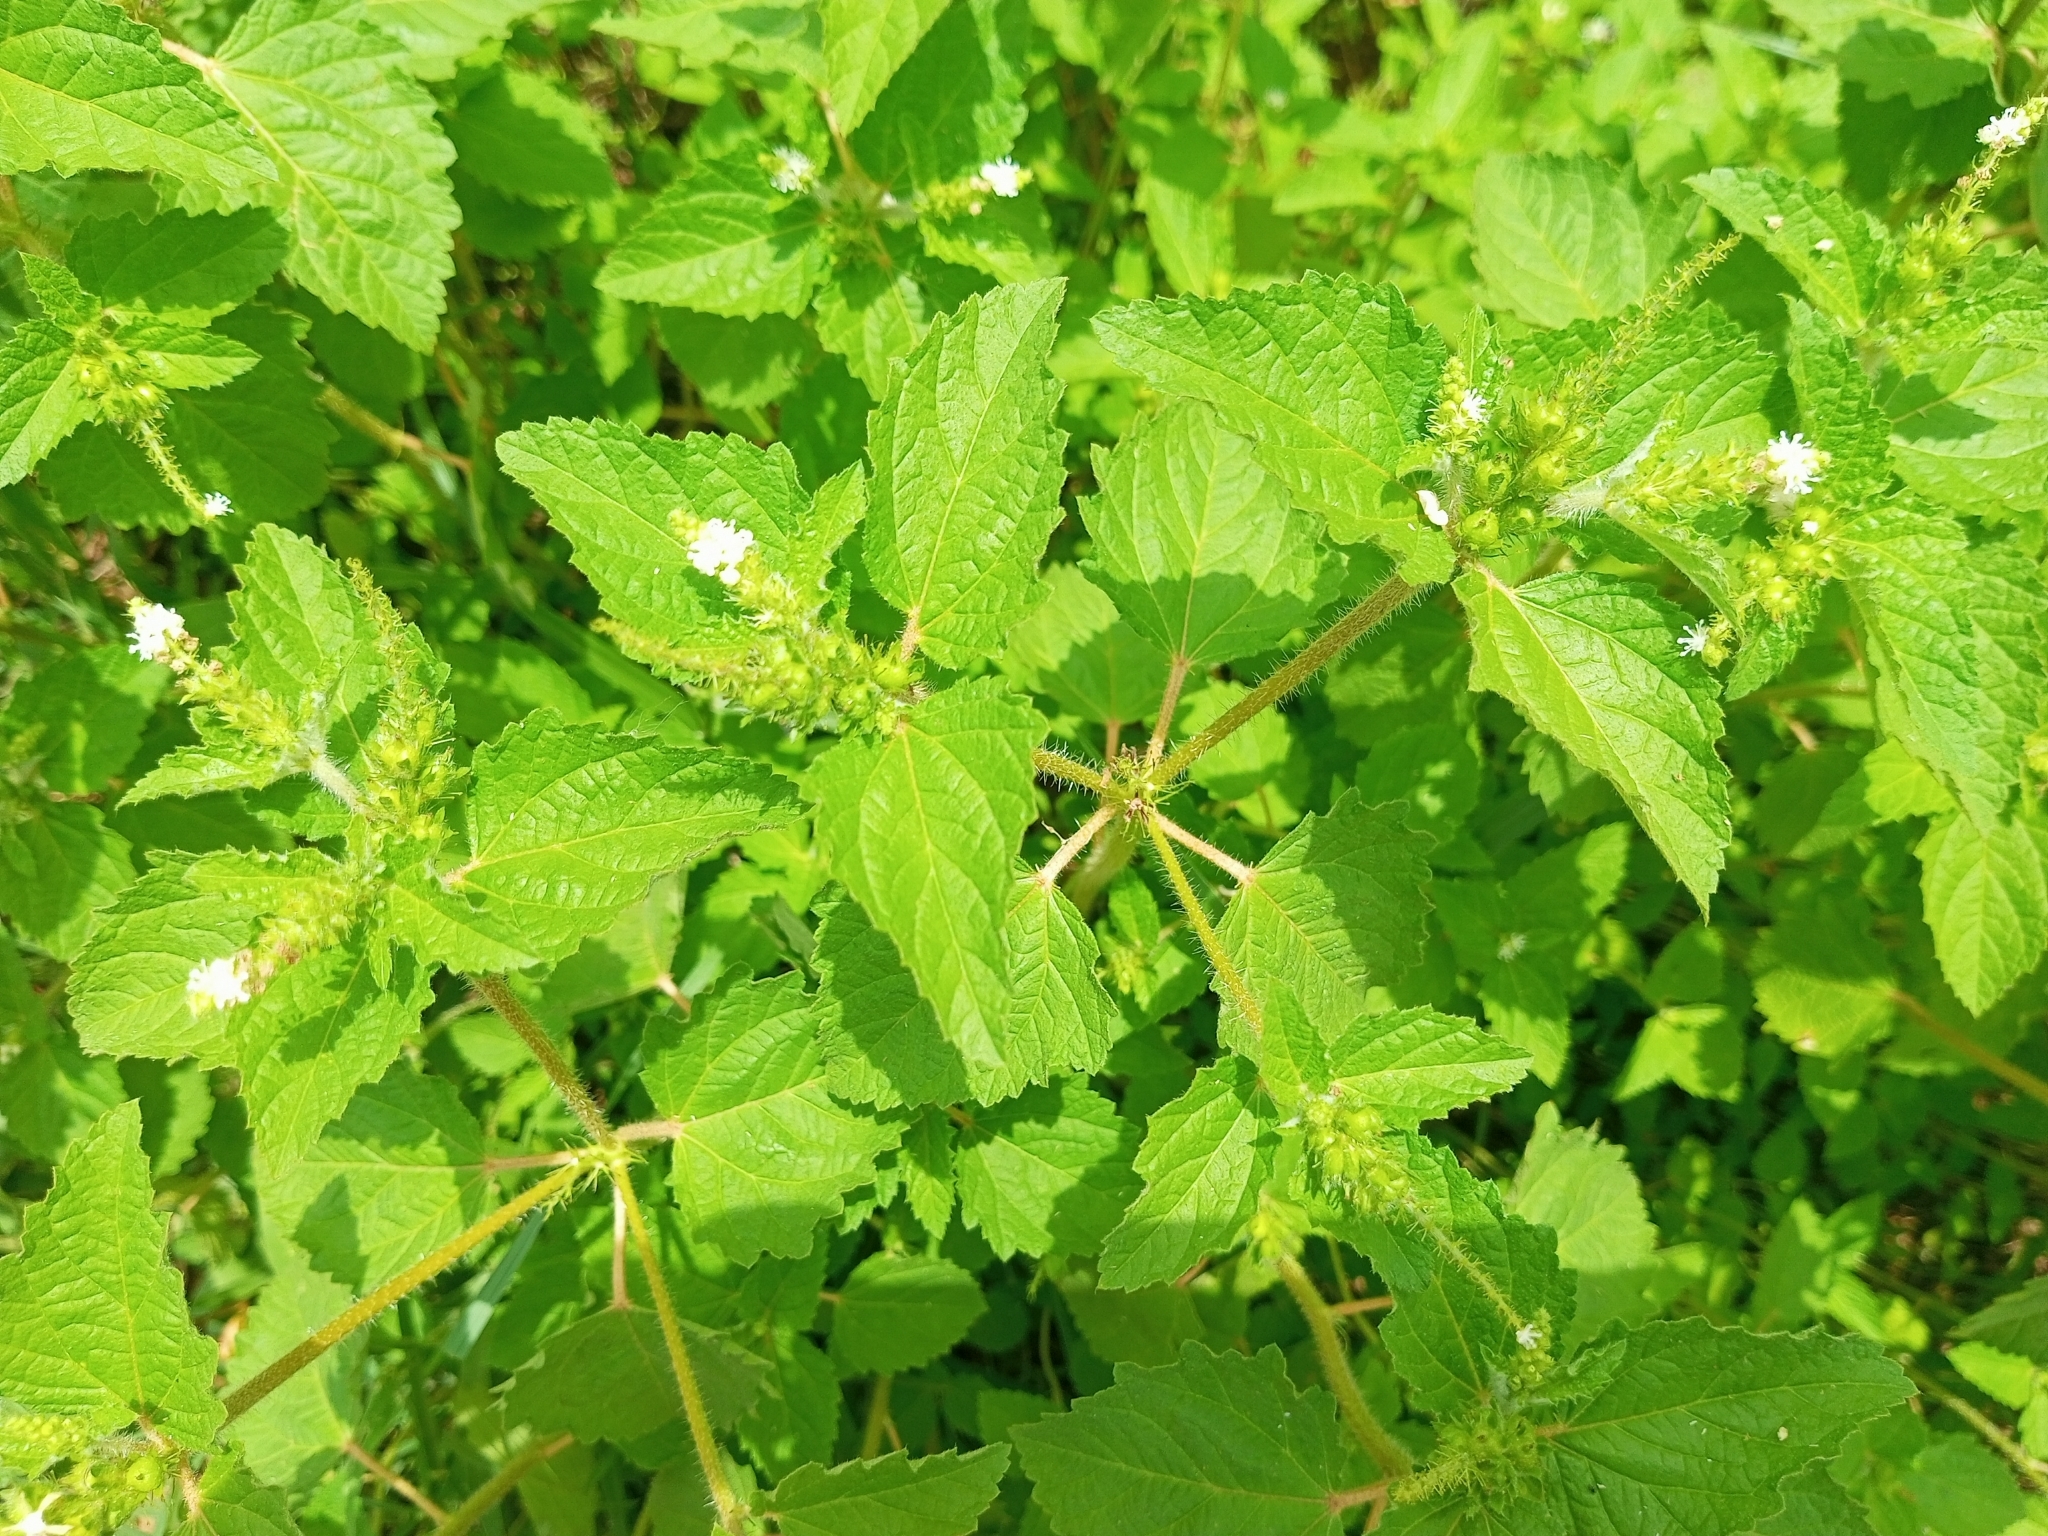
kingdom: Plantae
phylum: Tracheophyta
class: Magnoliopsida
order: Malpighiales
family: Euphorbiaceae
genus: Croton
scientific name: Croton hirtus
